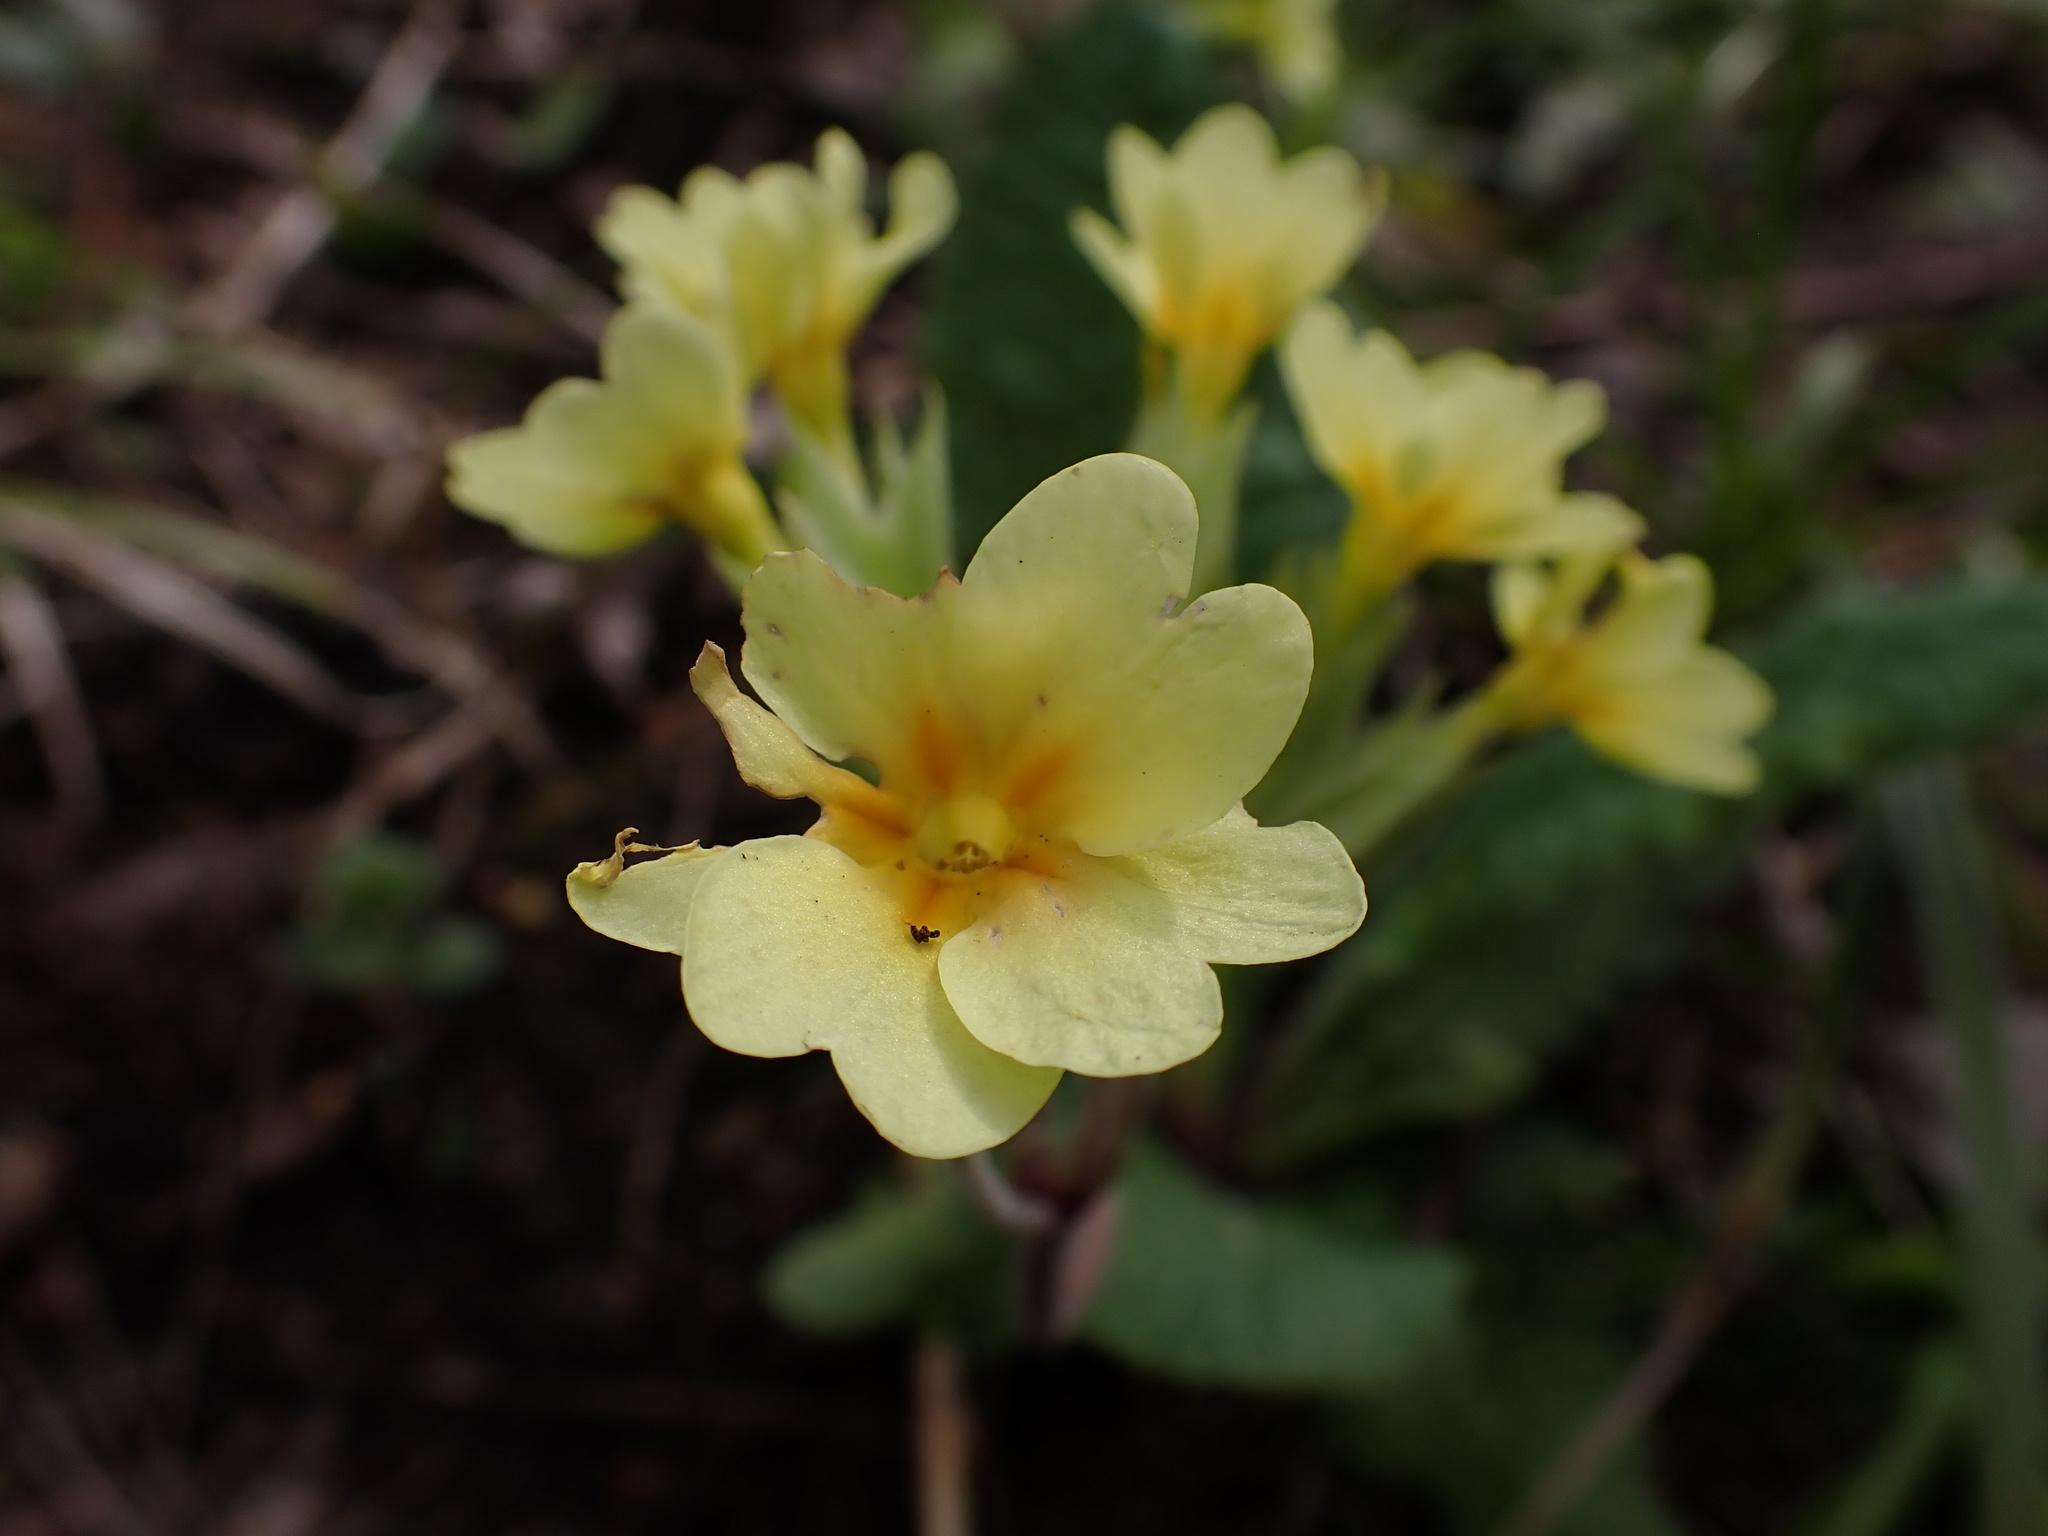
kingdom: Plantae
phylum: Tracheophyta
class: Magnoliopsida
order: Ericales
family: Primulaceae
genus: Primula
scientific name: Primula polyantha
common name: False oxlip
